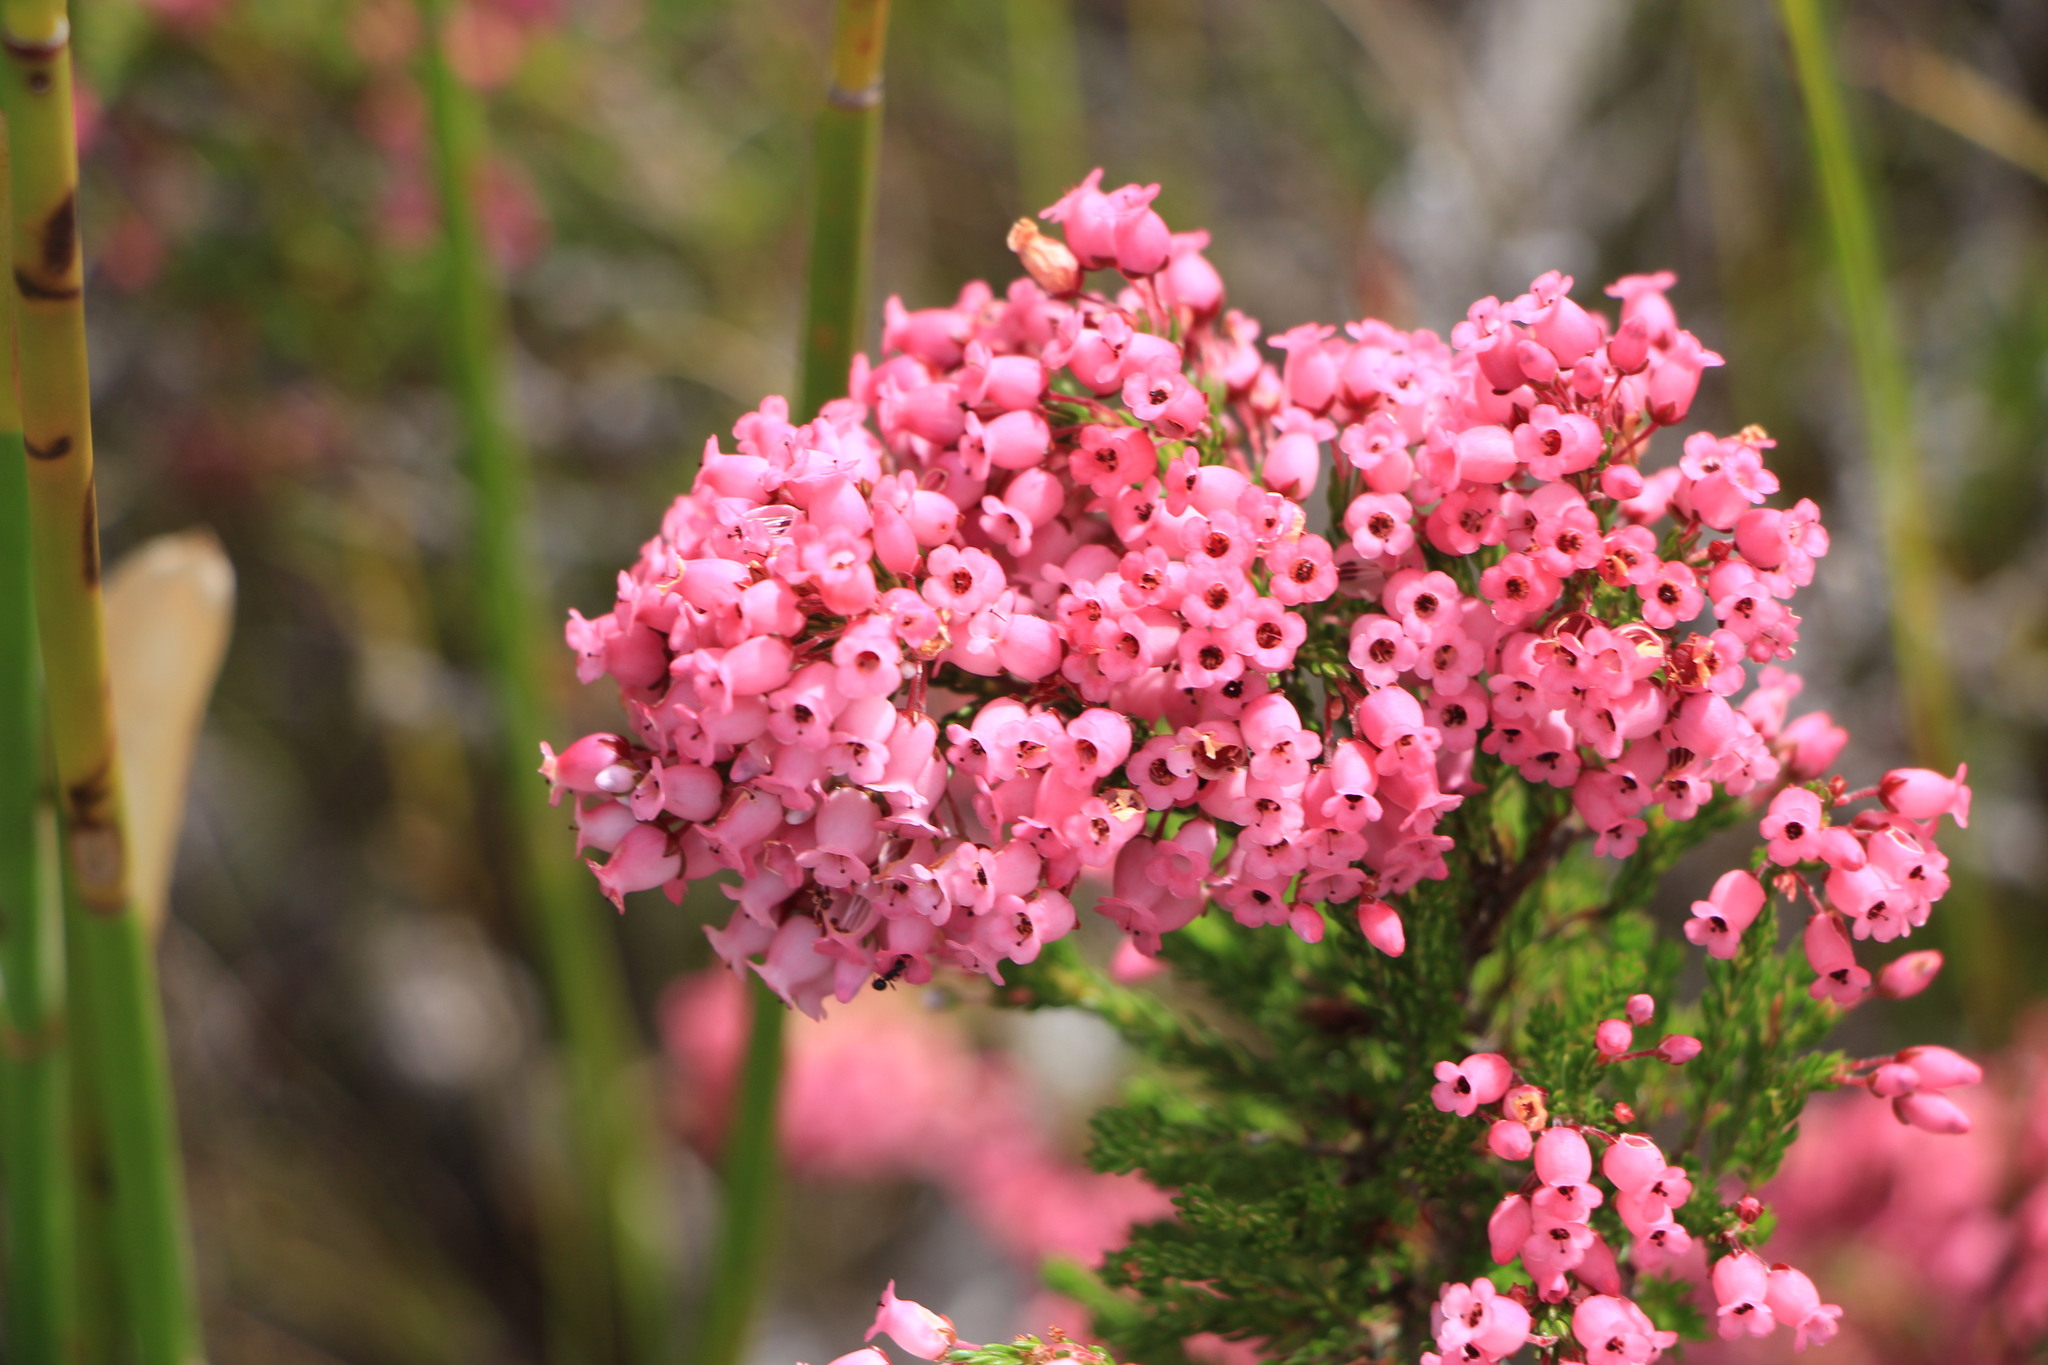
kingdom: Plantae
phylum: Tracheophyta
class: Magnoliopsida
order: Ericales
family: Ericaceae
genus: Erica
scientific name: Erica tenella
